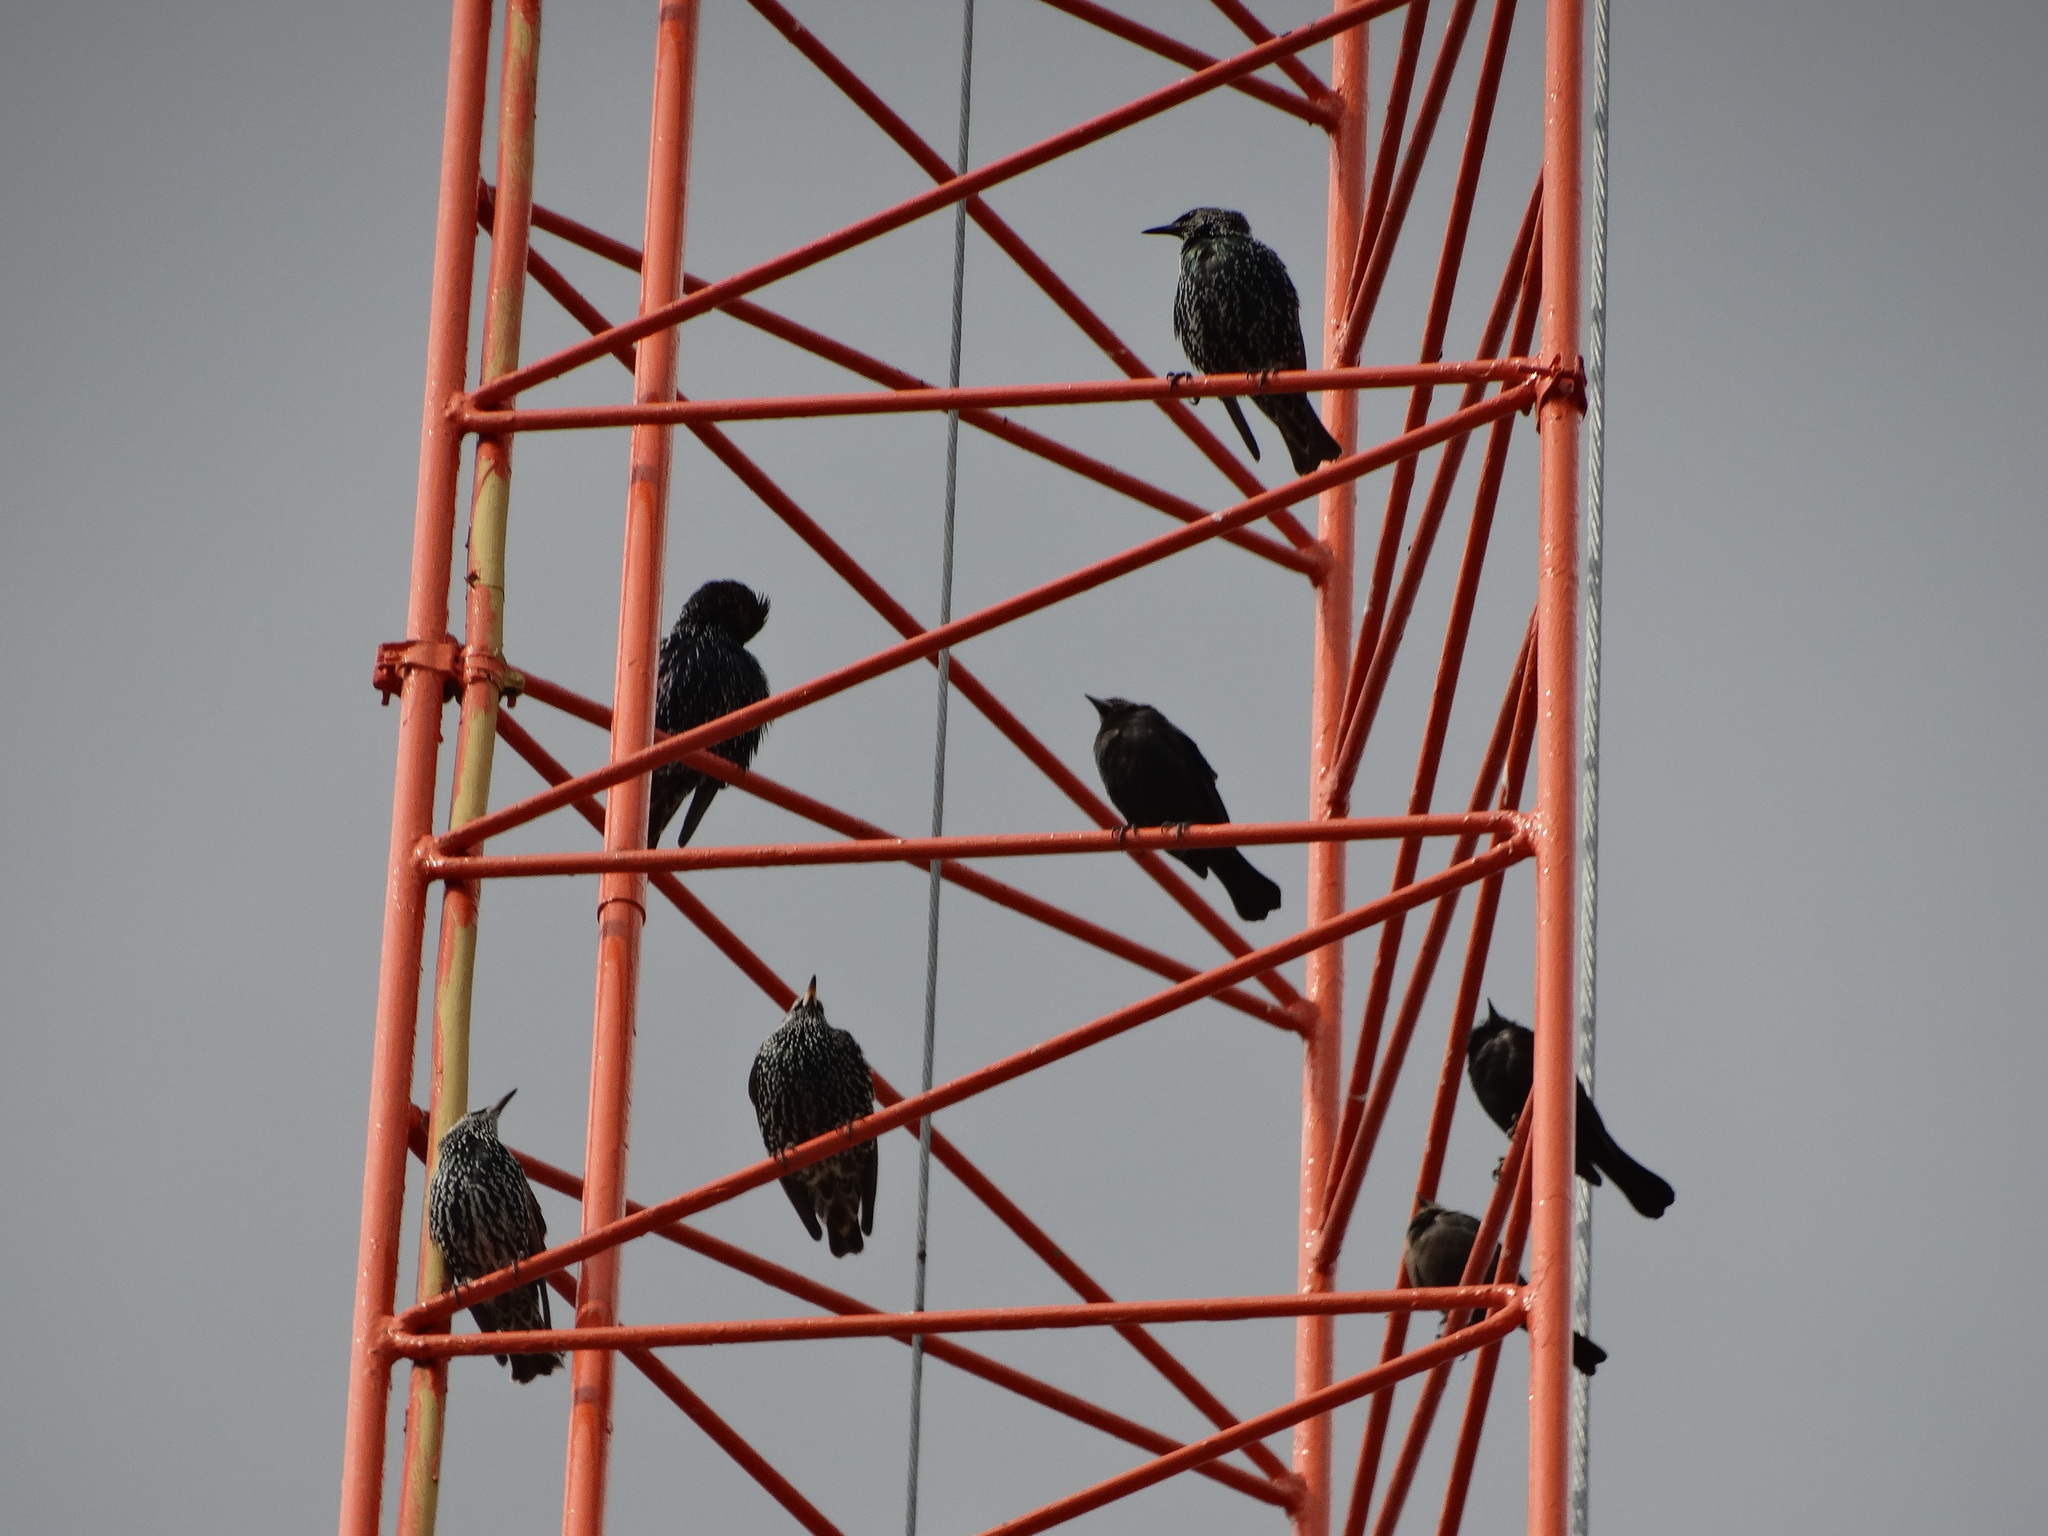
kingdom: Animalia
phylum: Chordata
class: Aves
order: Passeriformes
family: Sturnidae
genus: Sturnus
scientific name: Sturnus vulgaris
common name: Common starling
